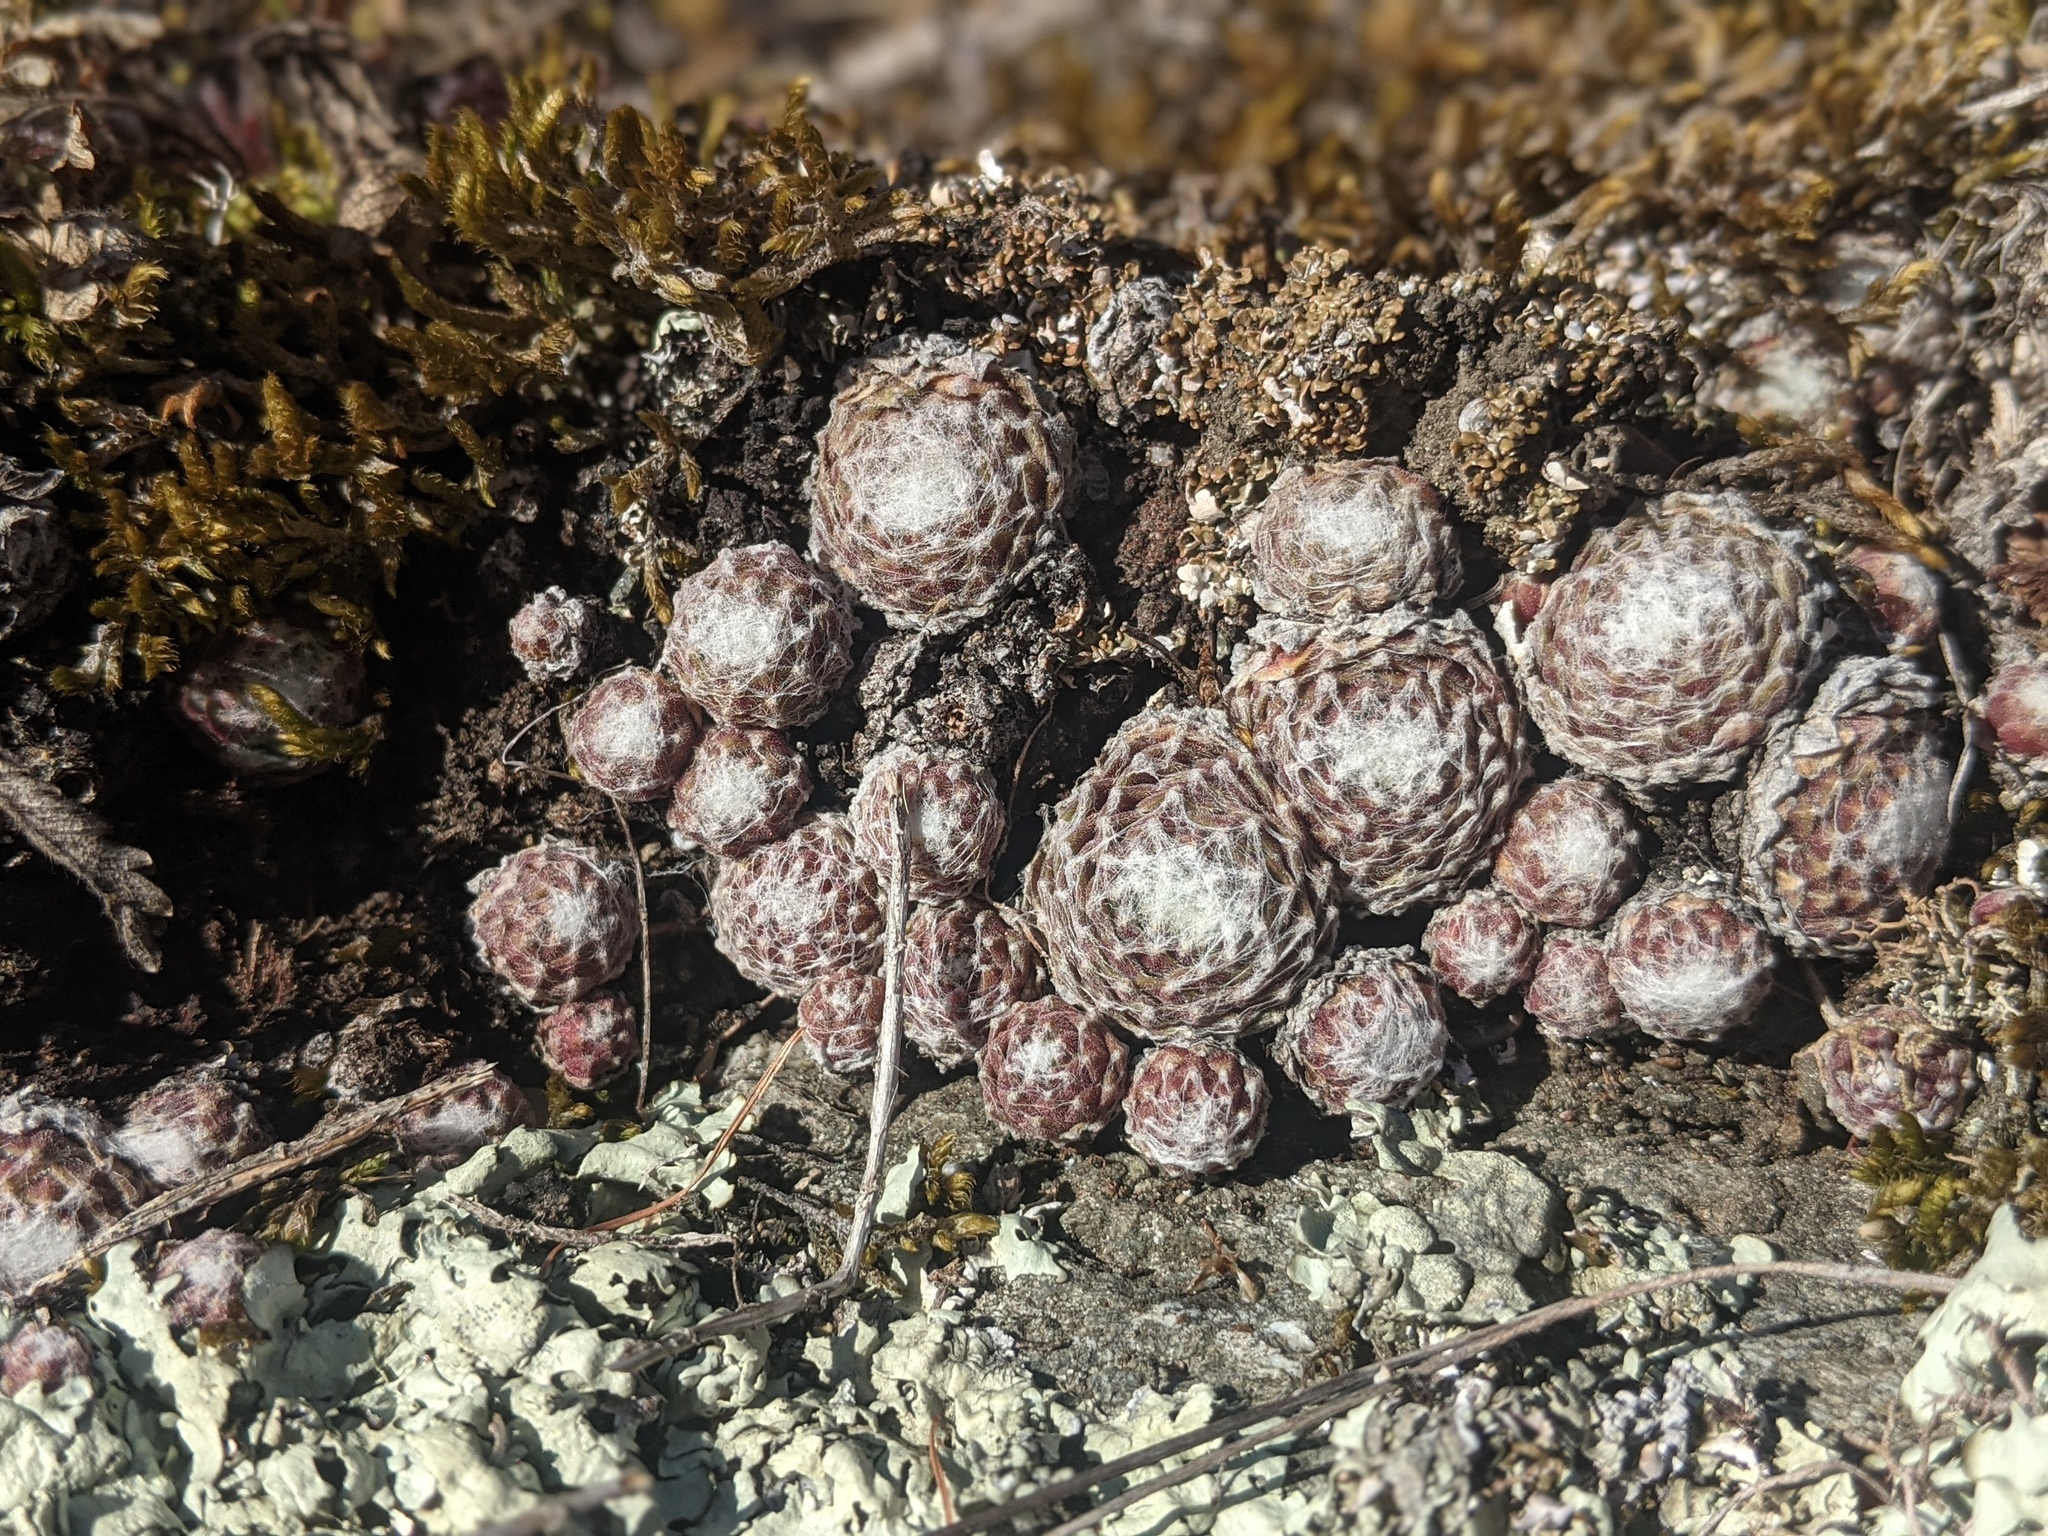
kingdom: Plantae
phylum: Tracheophyta
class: Magnoliopsida
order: Saxifragales
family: Crassulaceae
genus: Sempervivum
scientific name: Sempervivum arachnoideum
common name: Cobweb house-leek
